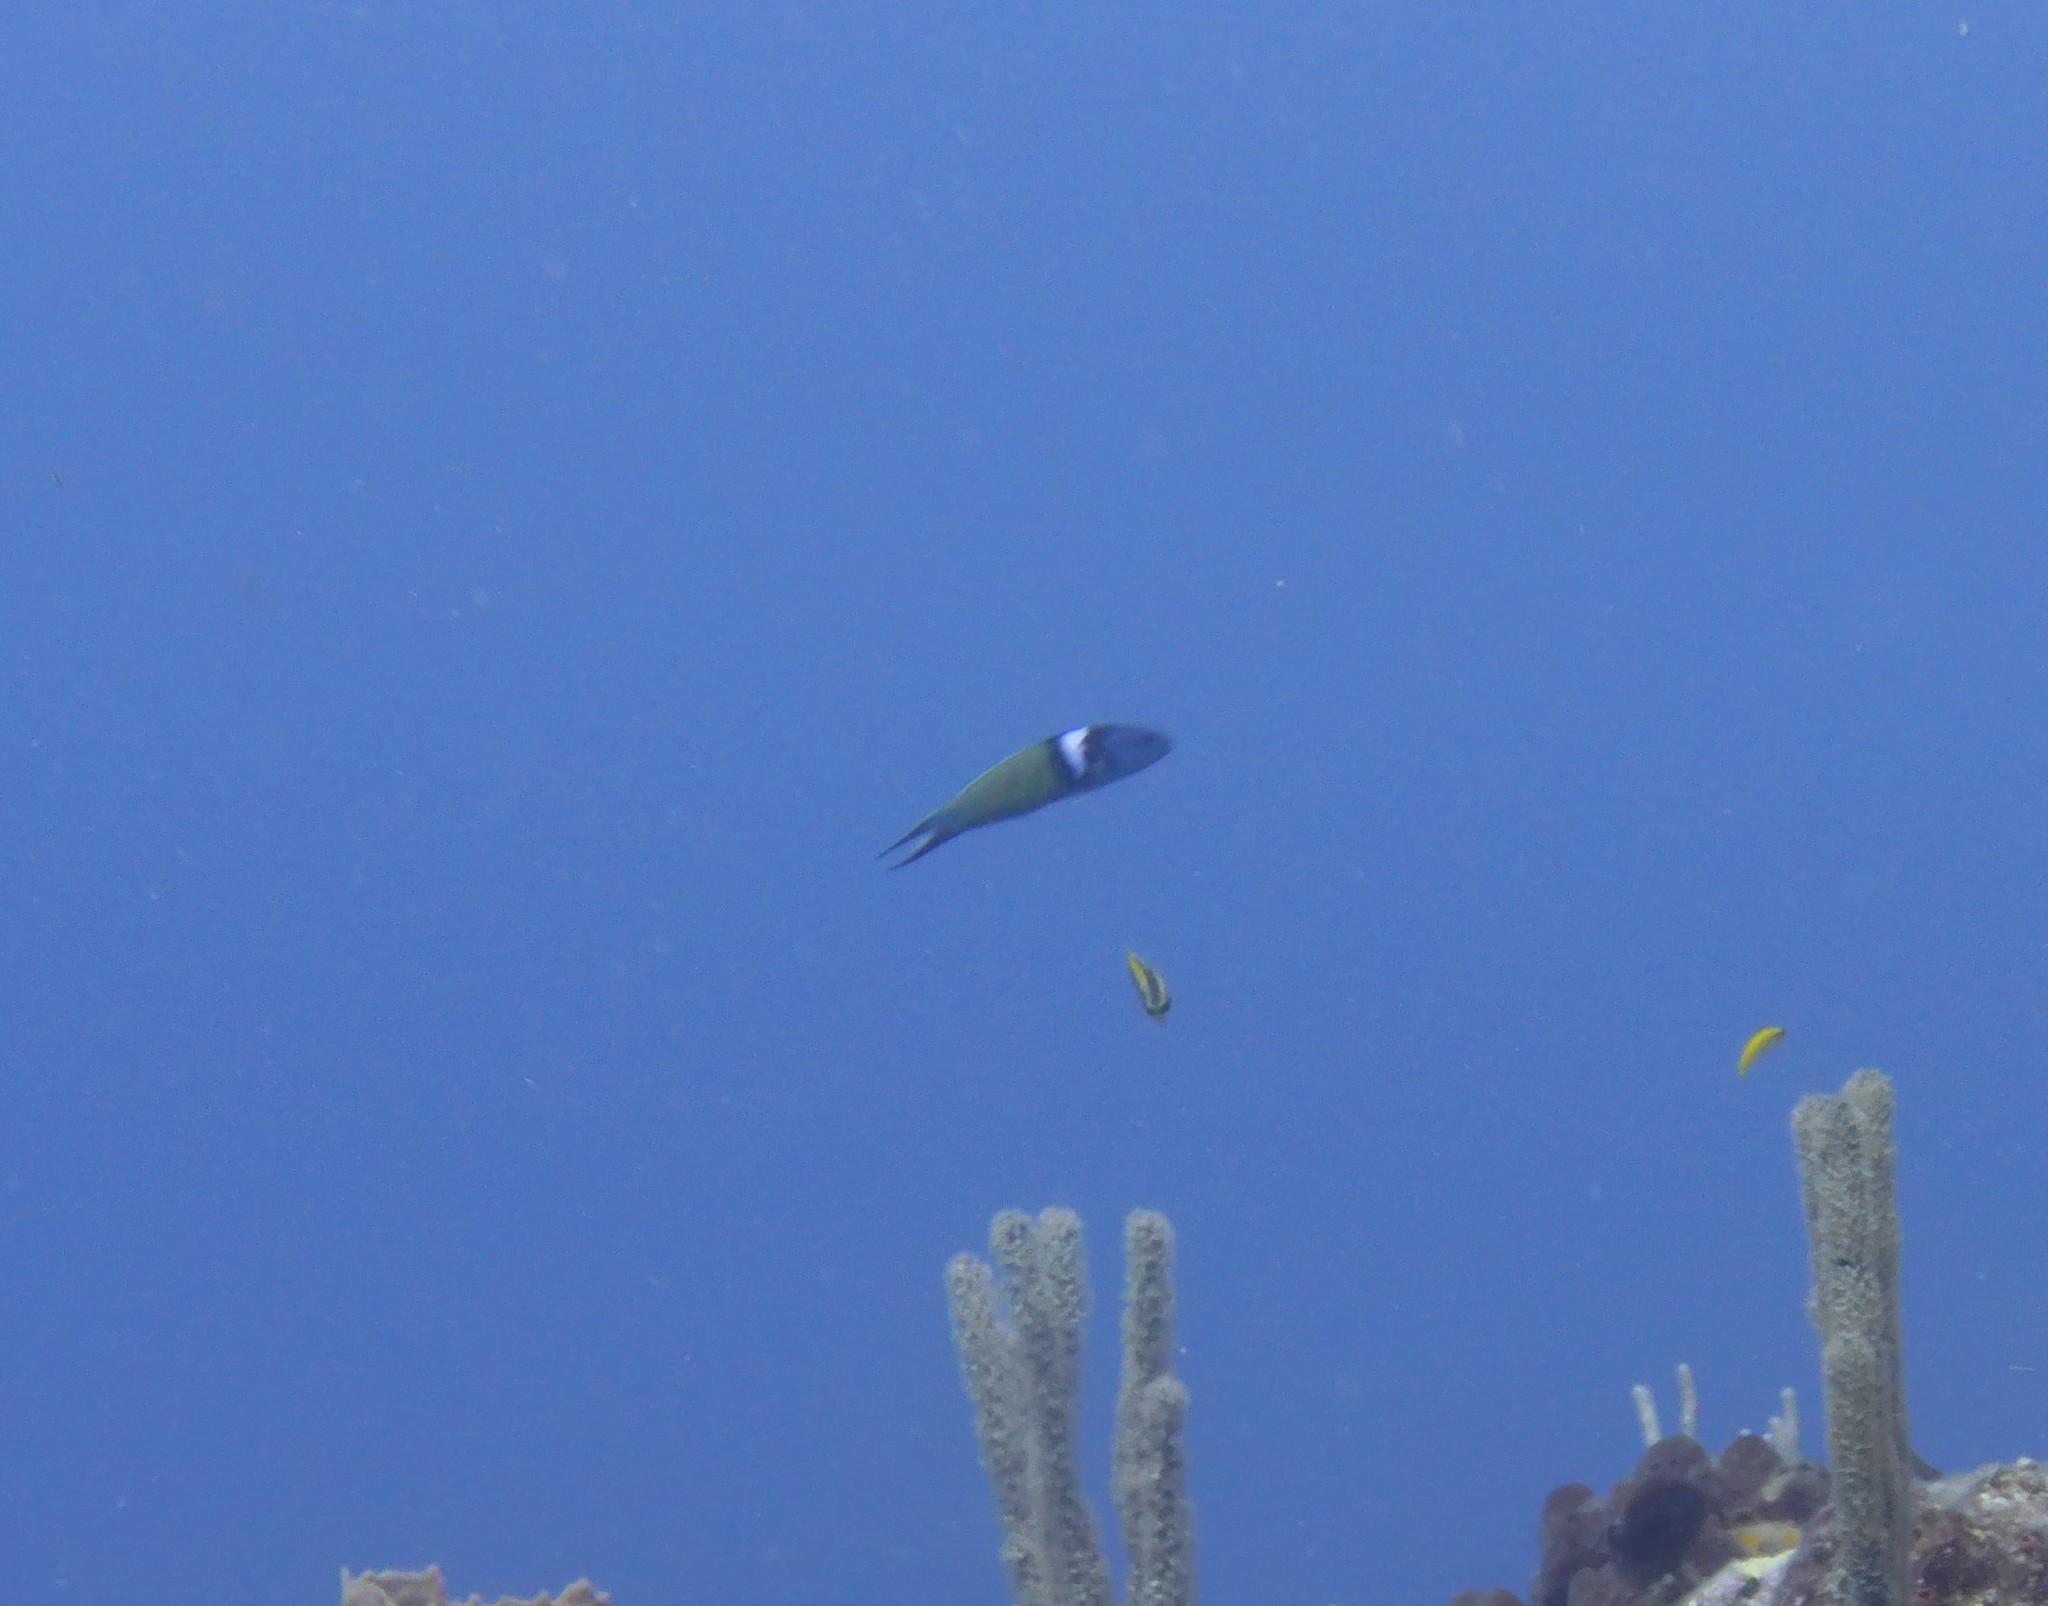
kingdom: Animalia
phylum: Chordata
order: Perciformes
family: Labridae
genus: Thalassoma
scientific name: Thalassoma bifasciatum
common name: Bluehead wrasse
